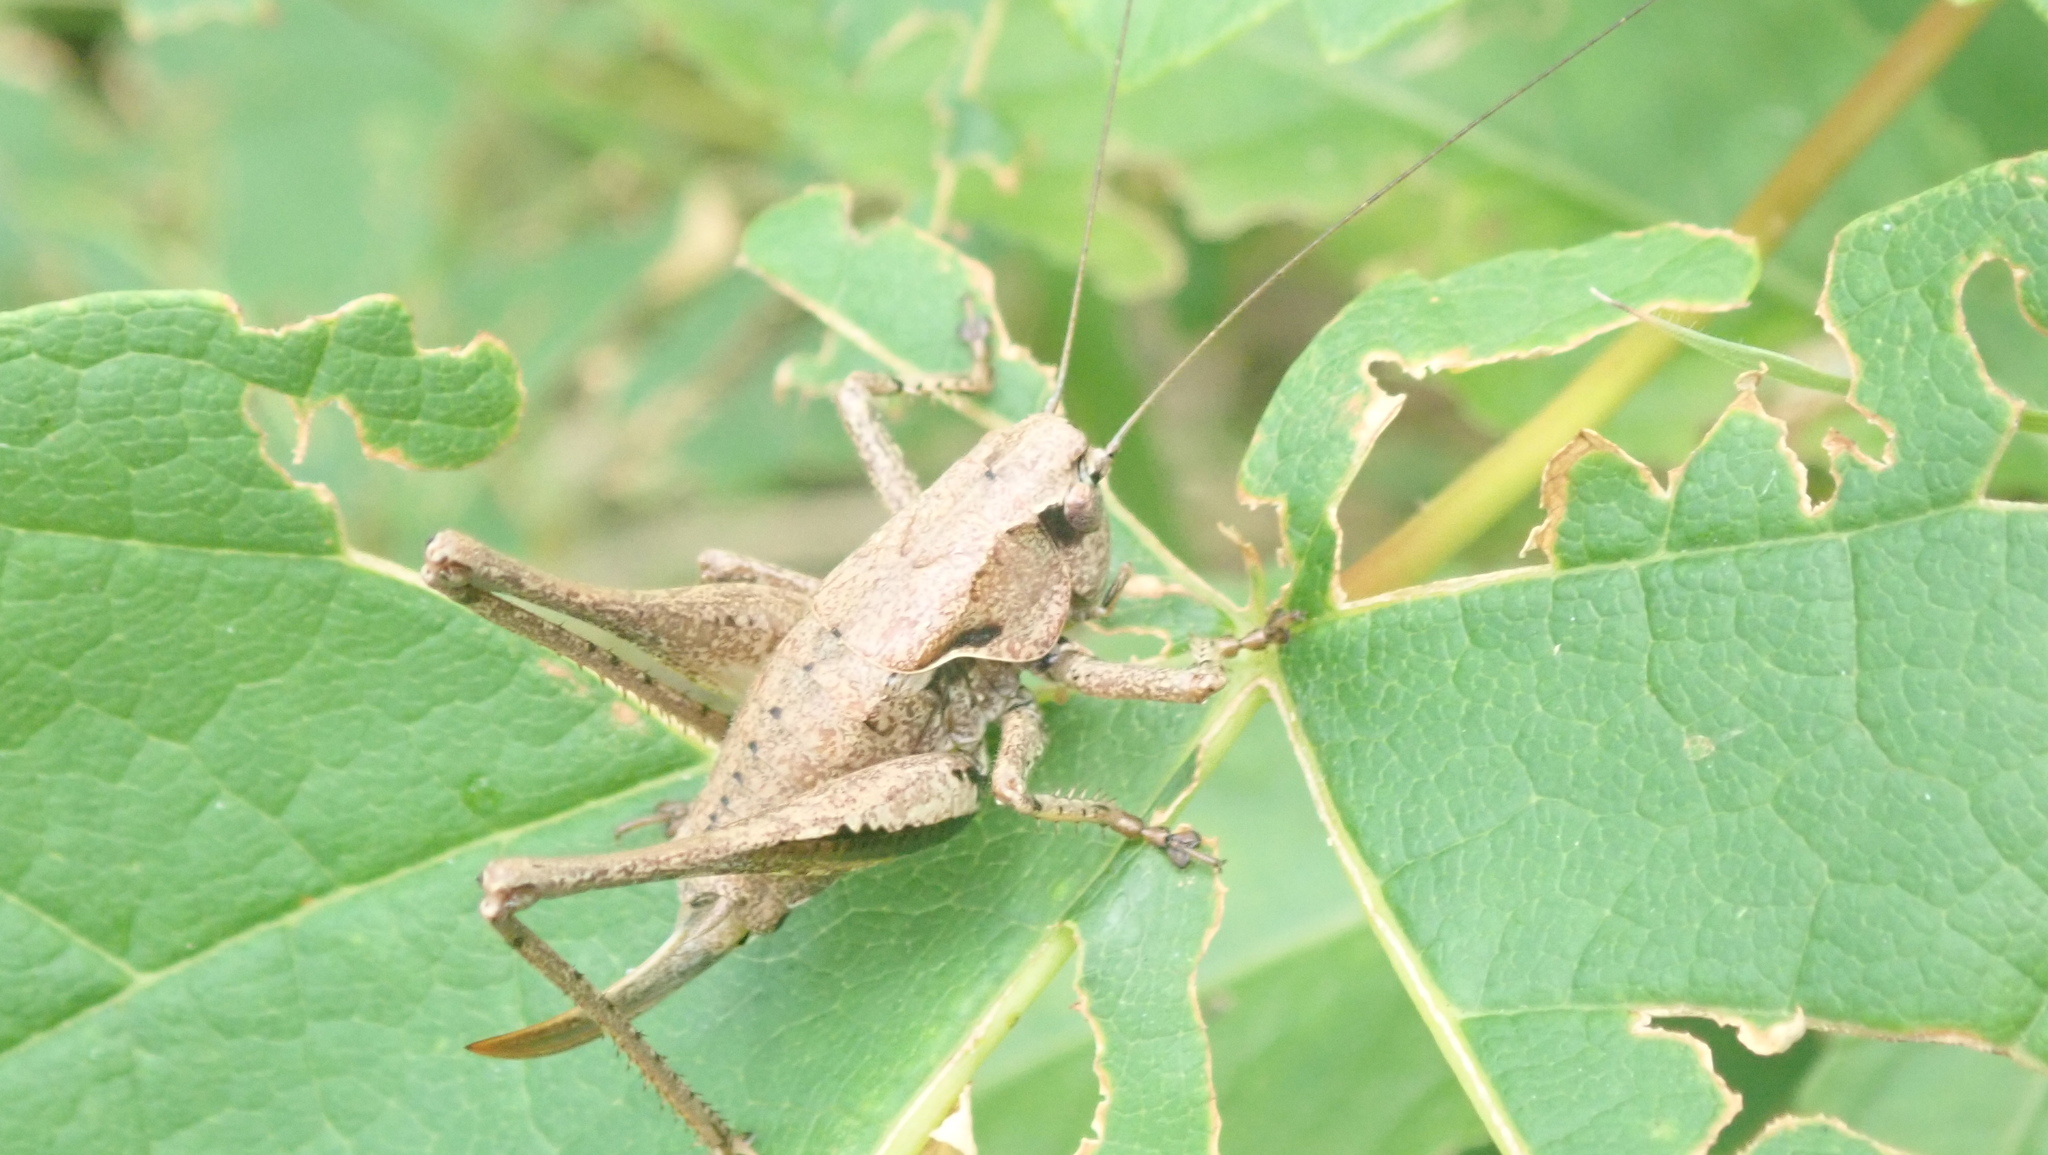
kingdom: Animalia
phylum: Arthropoda
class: Insecta
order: Orthoptera
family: Tettigoniidae
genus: Pholidoptera
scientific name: Pholidoptera griseoaptera
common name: Dark bush-cricket
